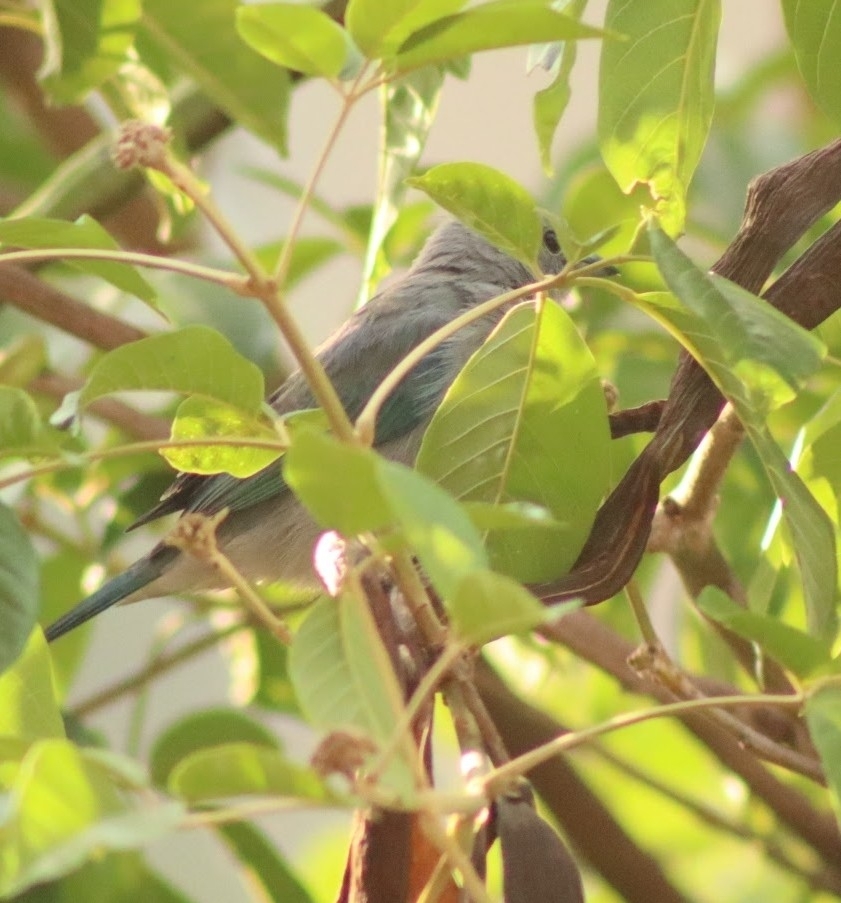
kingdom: Animalia
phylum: Chordata
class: Aves
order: Passeriformes
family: Thraupidae
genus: Thraupis
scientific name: Thraupis episcopus
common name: Blue-grey tanager
